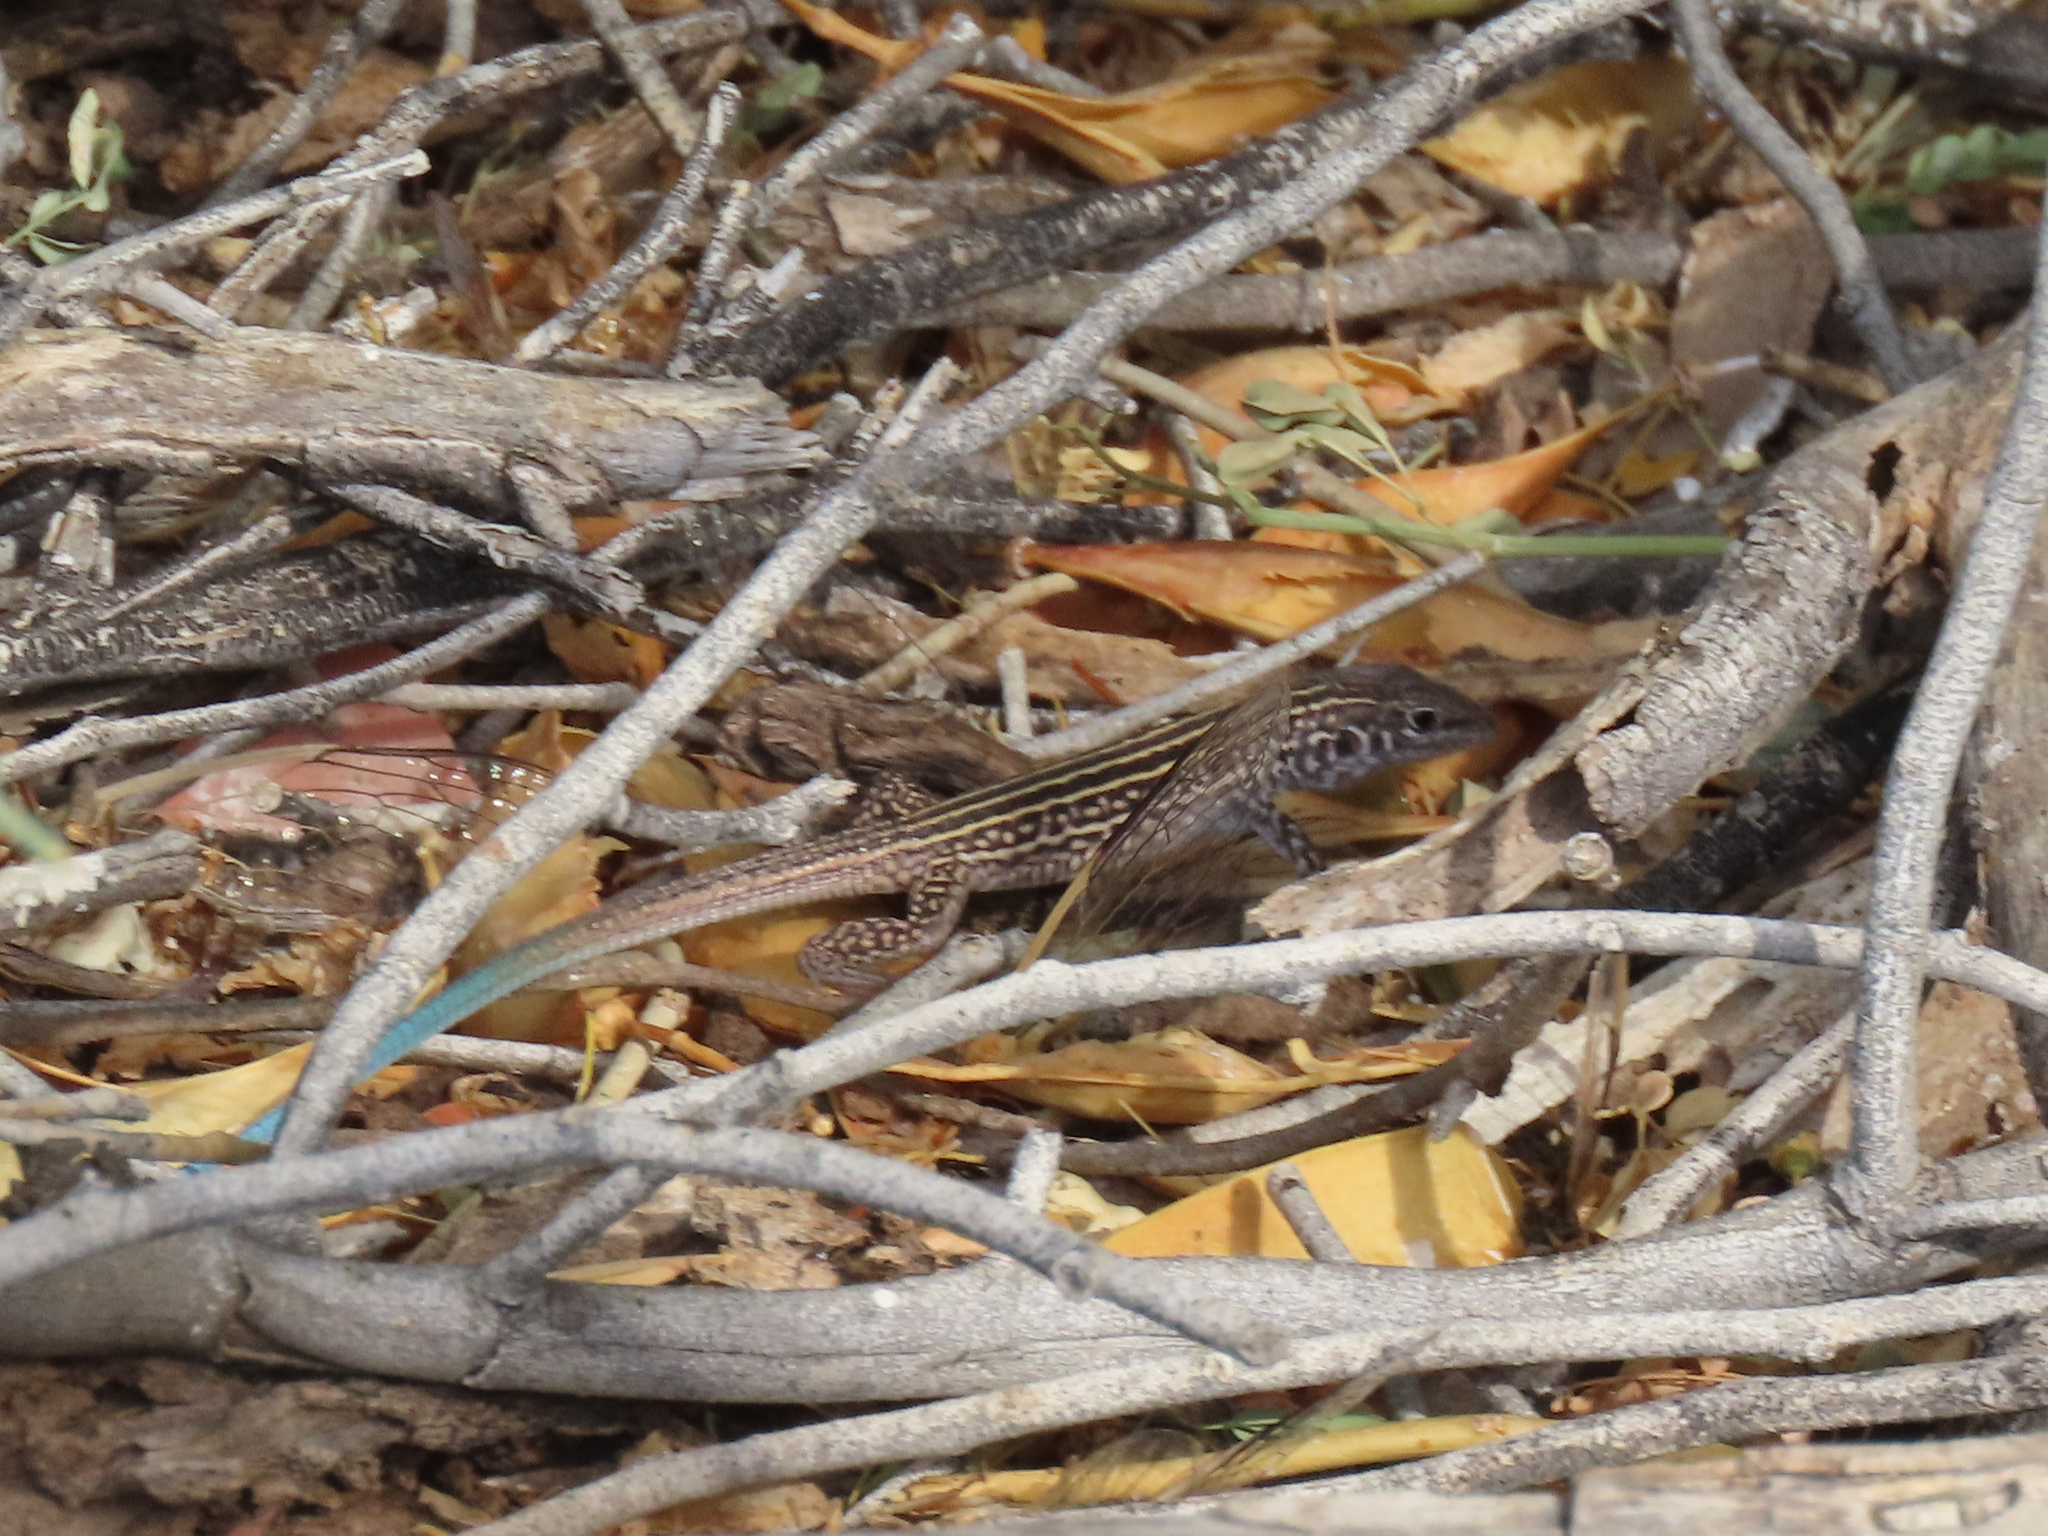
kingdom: Animalia
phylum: Chordata
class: Squamata
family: Teiidae
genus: Aspidoscelis
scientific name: Aspidoscelis tigris
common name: Tiger whiptail
